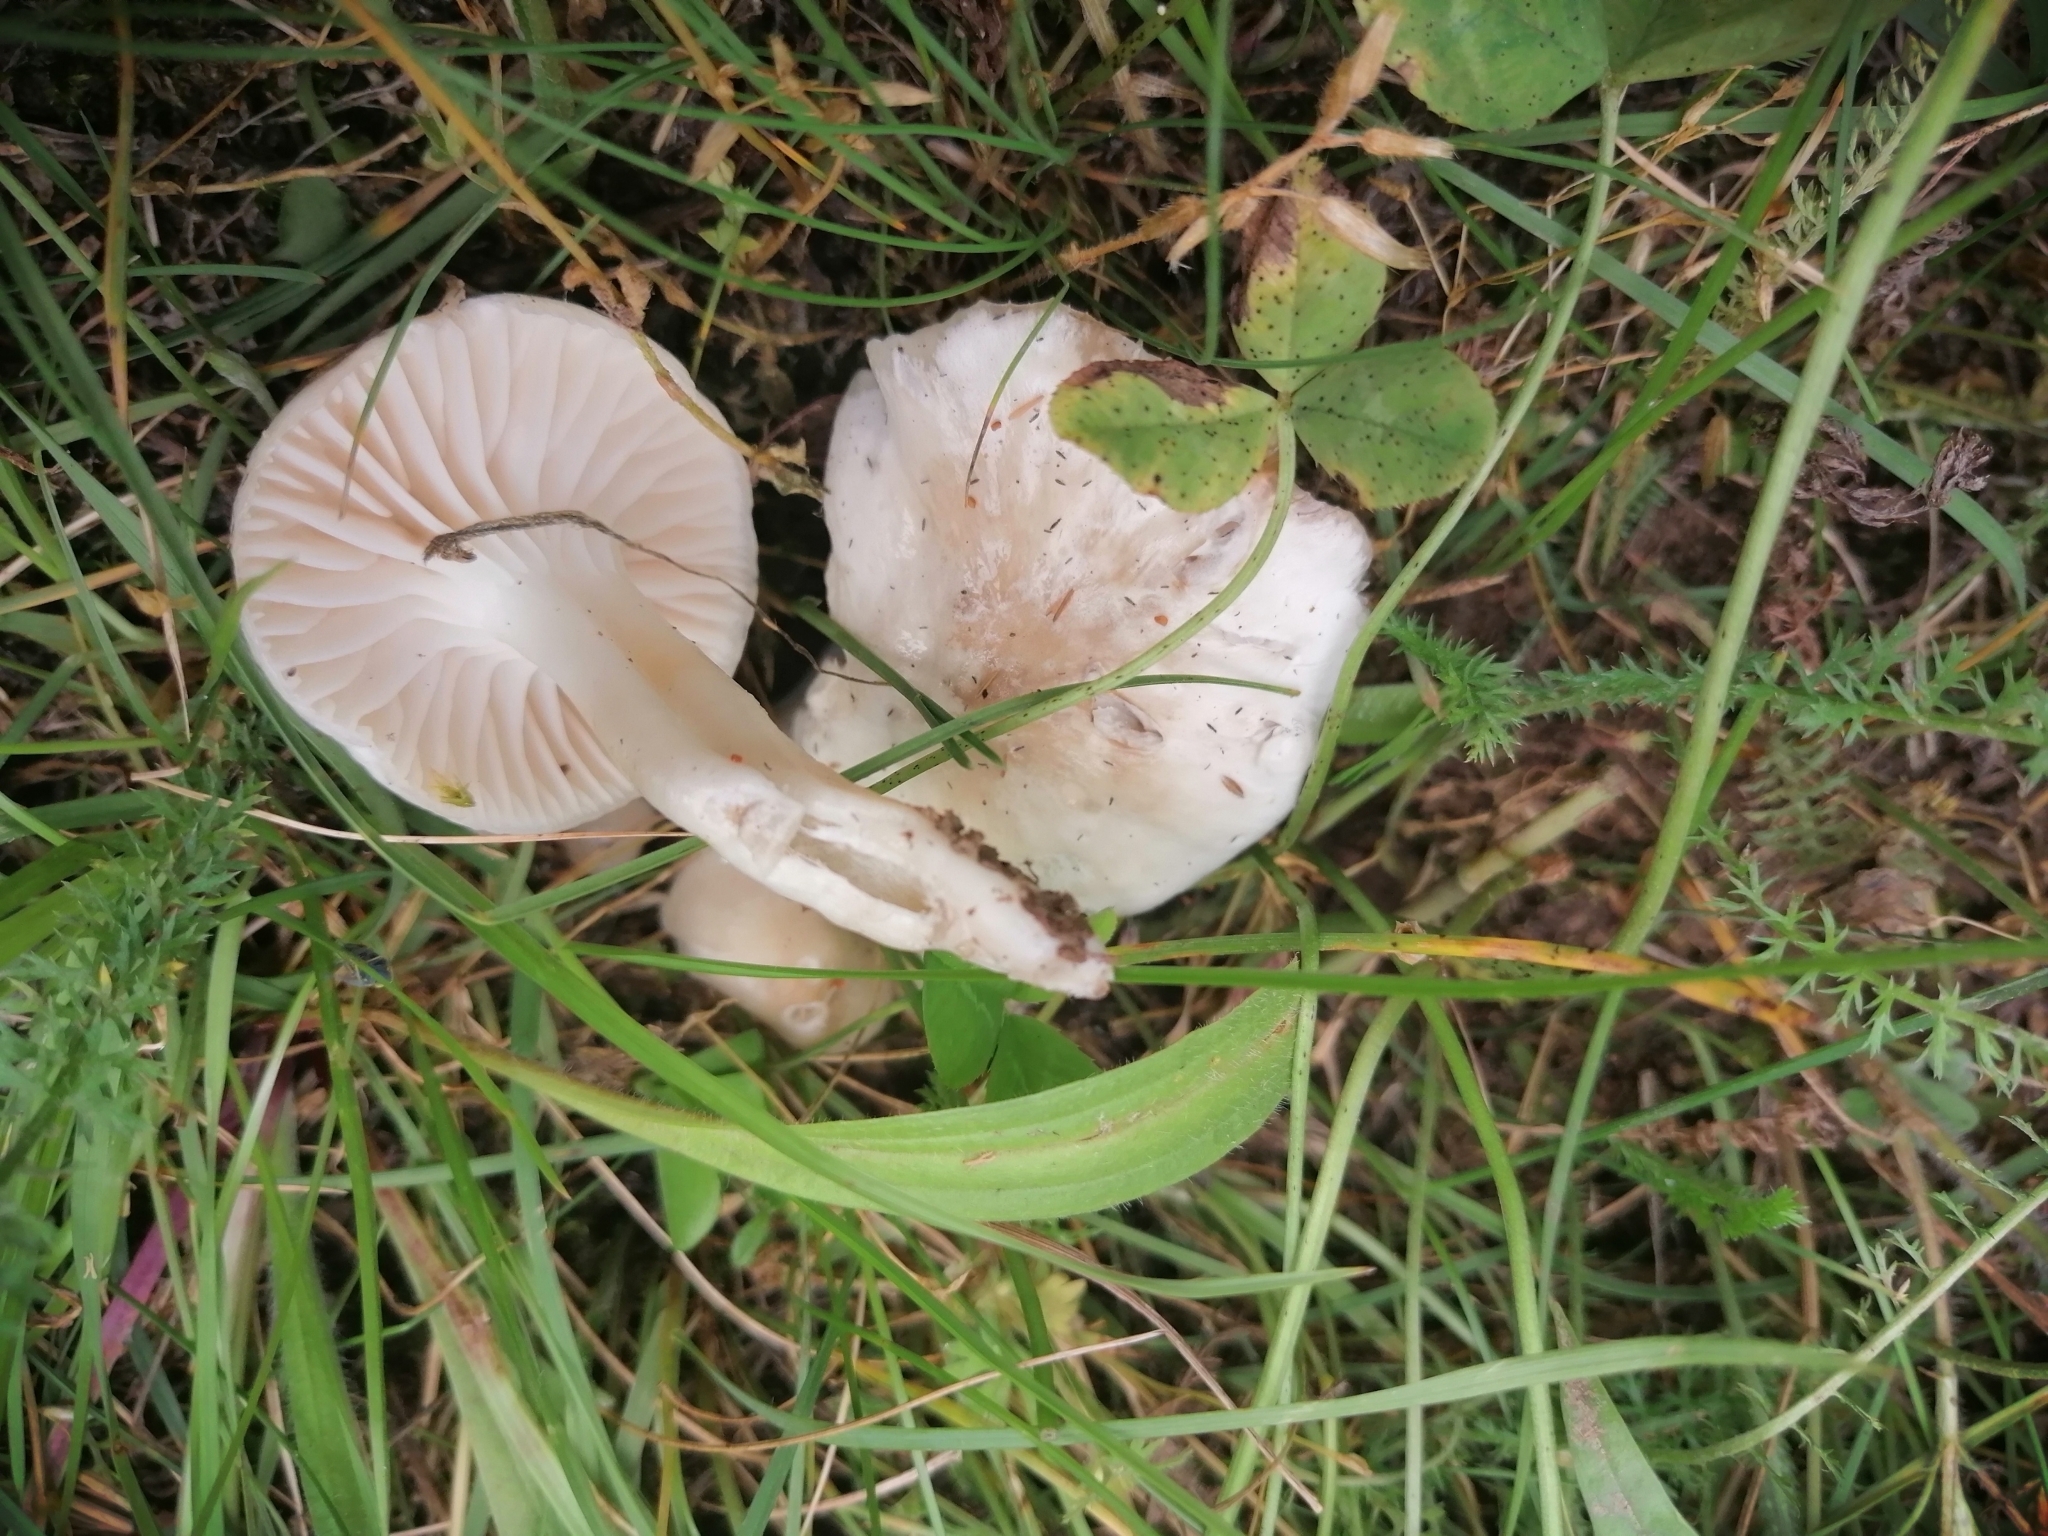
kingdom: Fungi
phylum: Basidiomycota
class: Agaricomycetes
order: Agaricales
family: Hygrophoraceae
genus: Cuphophyllus
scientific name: Cuphophyllus virgineus
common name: Snowy waxcap
